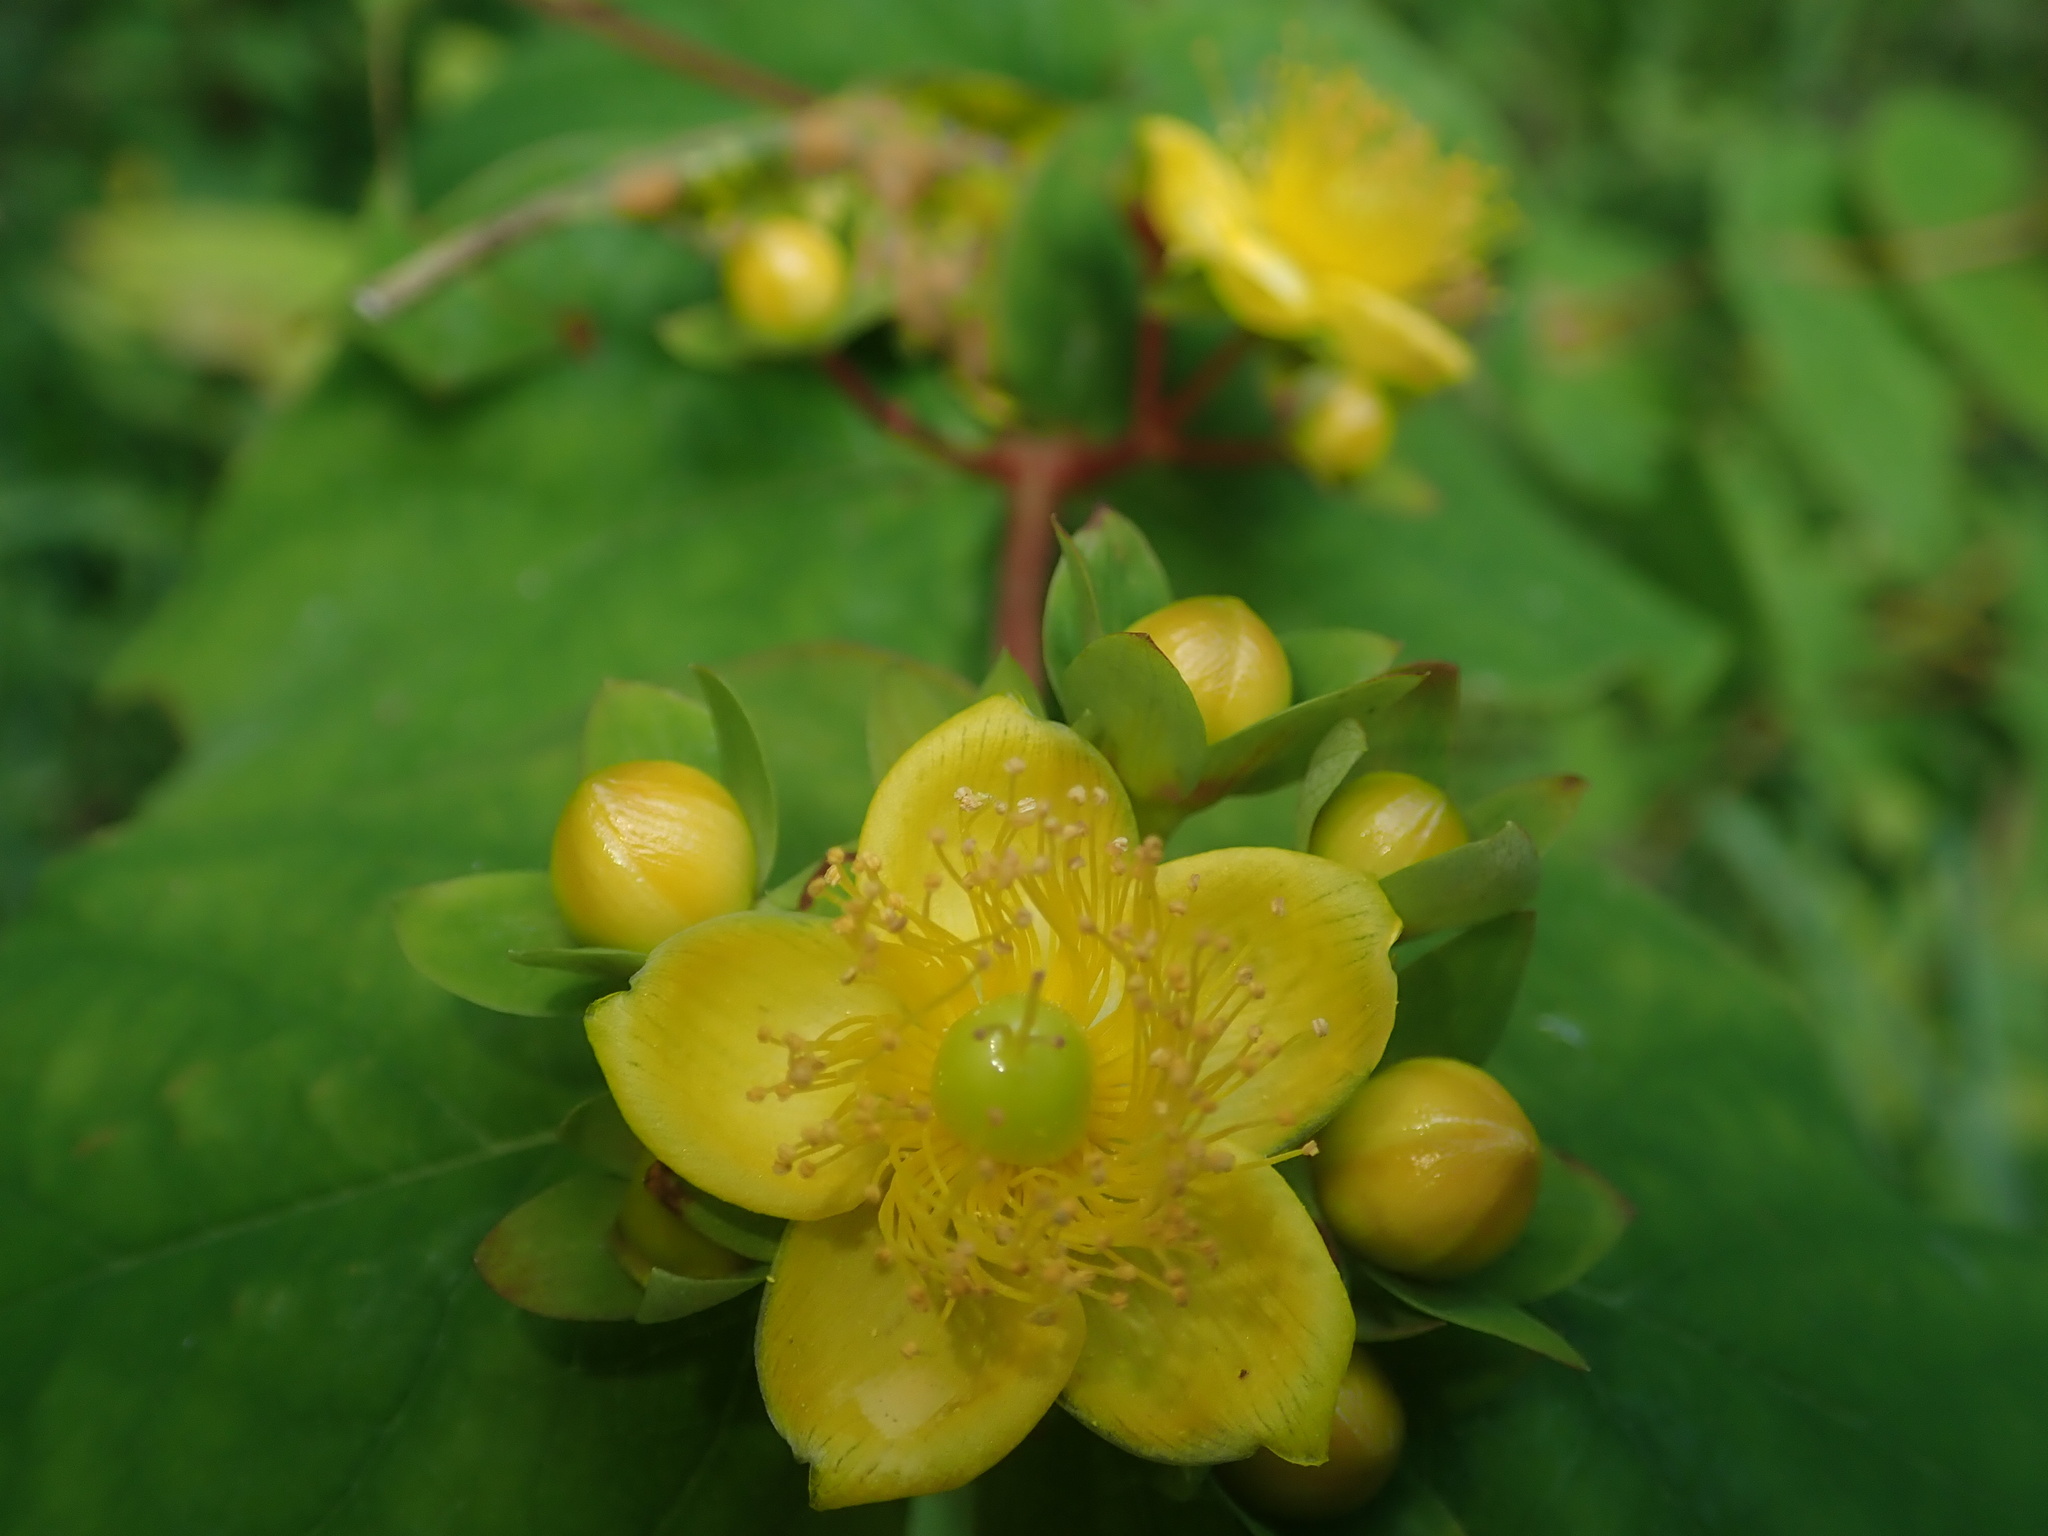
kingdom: Plantae
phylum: Tracheophyta
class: Magnoliopsida
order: Malpighiales
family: Hypericaceae
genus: Hypericum
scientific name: Hypericum androsaemum
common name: Sweet-amber
